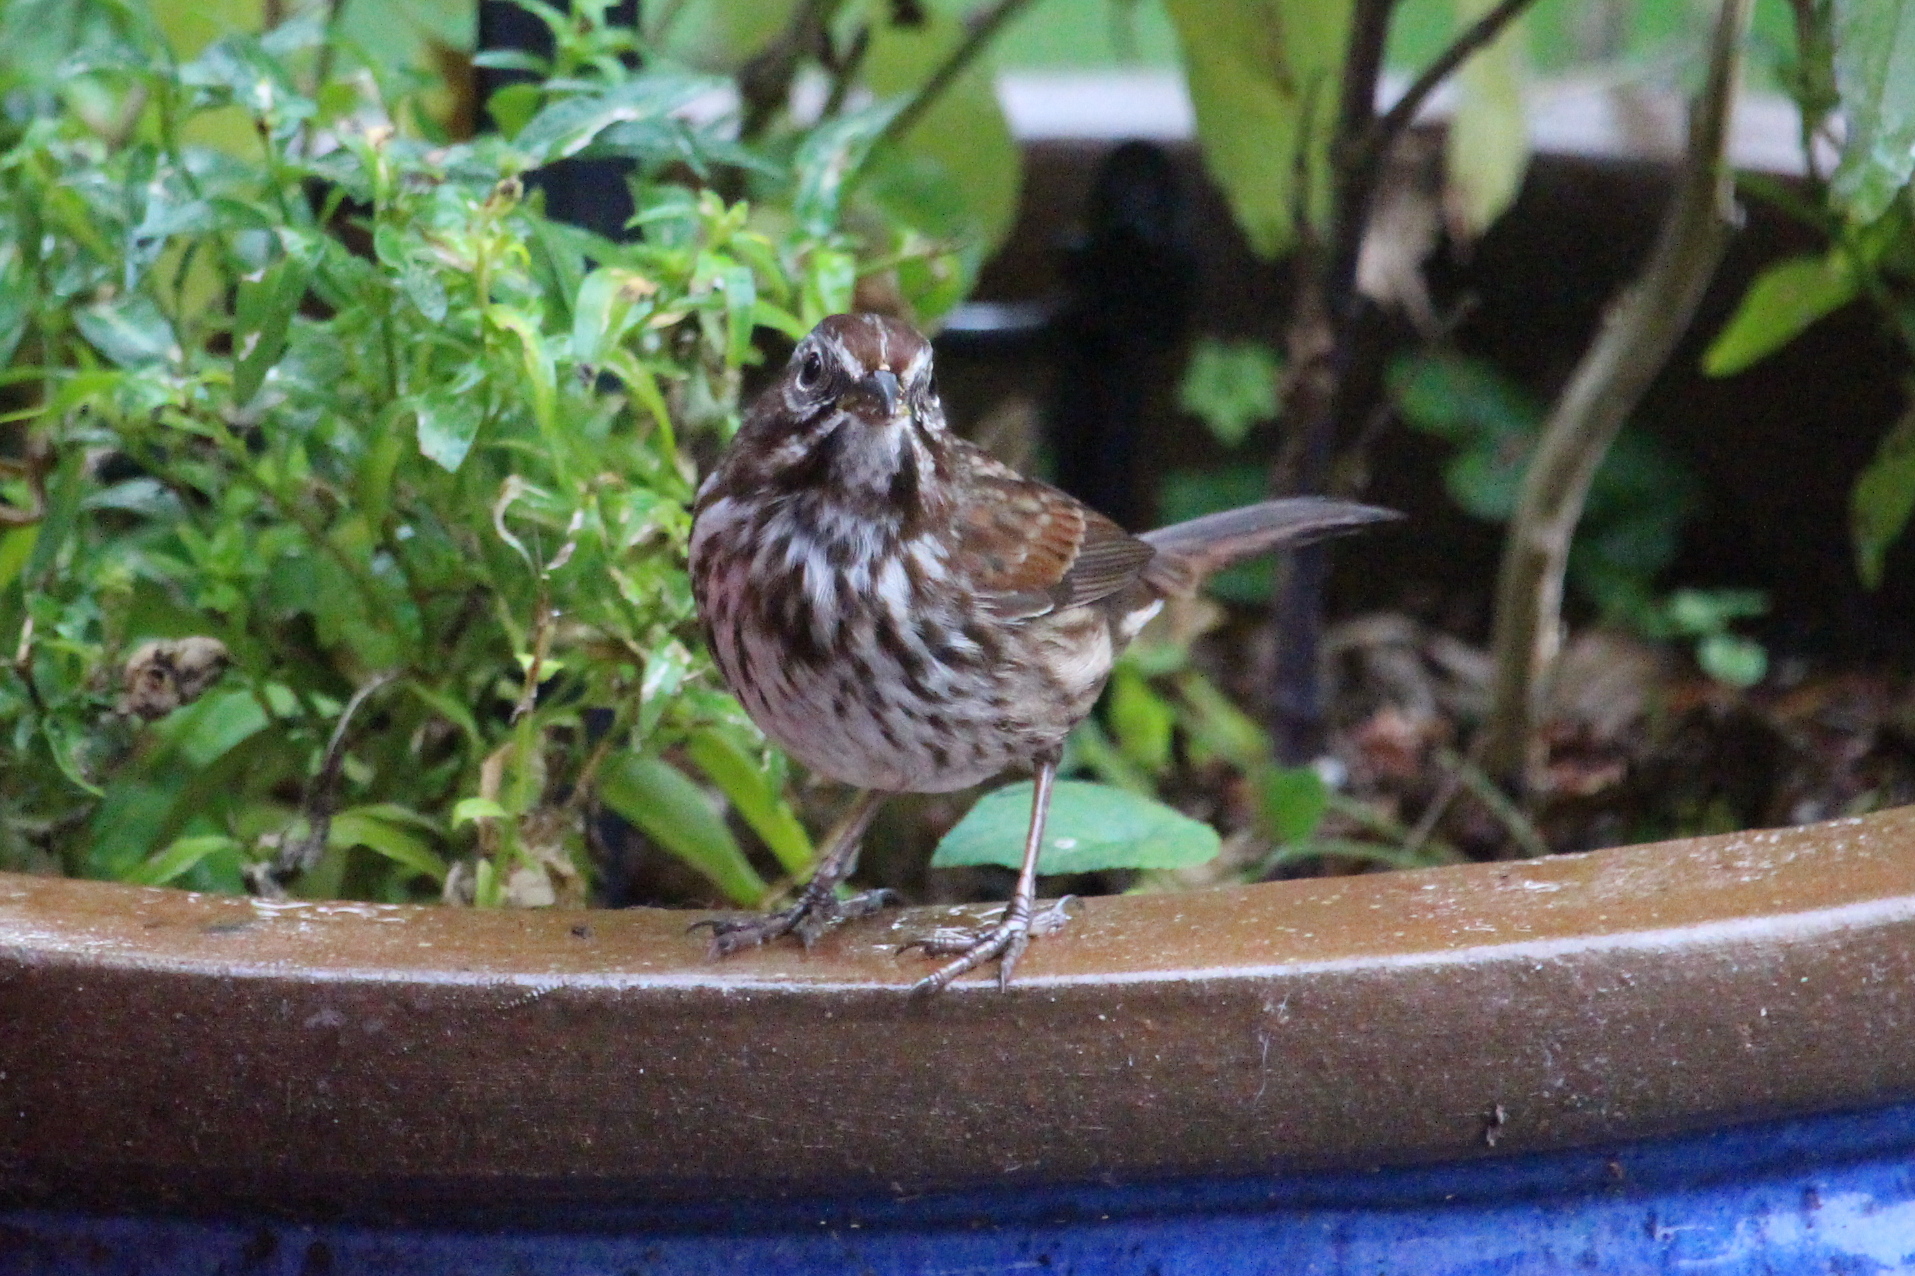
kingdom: Animalia
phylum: Chordata
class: Aves
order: Passeriformes
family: Passerellidae
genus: Melospiza
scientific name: Melospiza melodia
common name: Song sparrow
